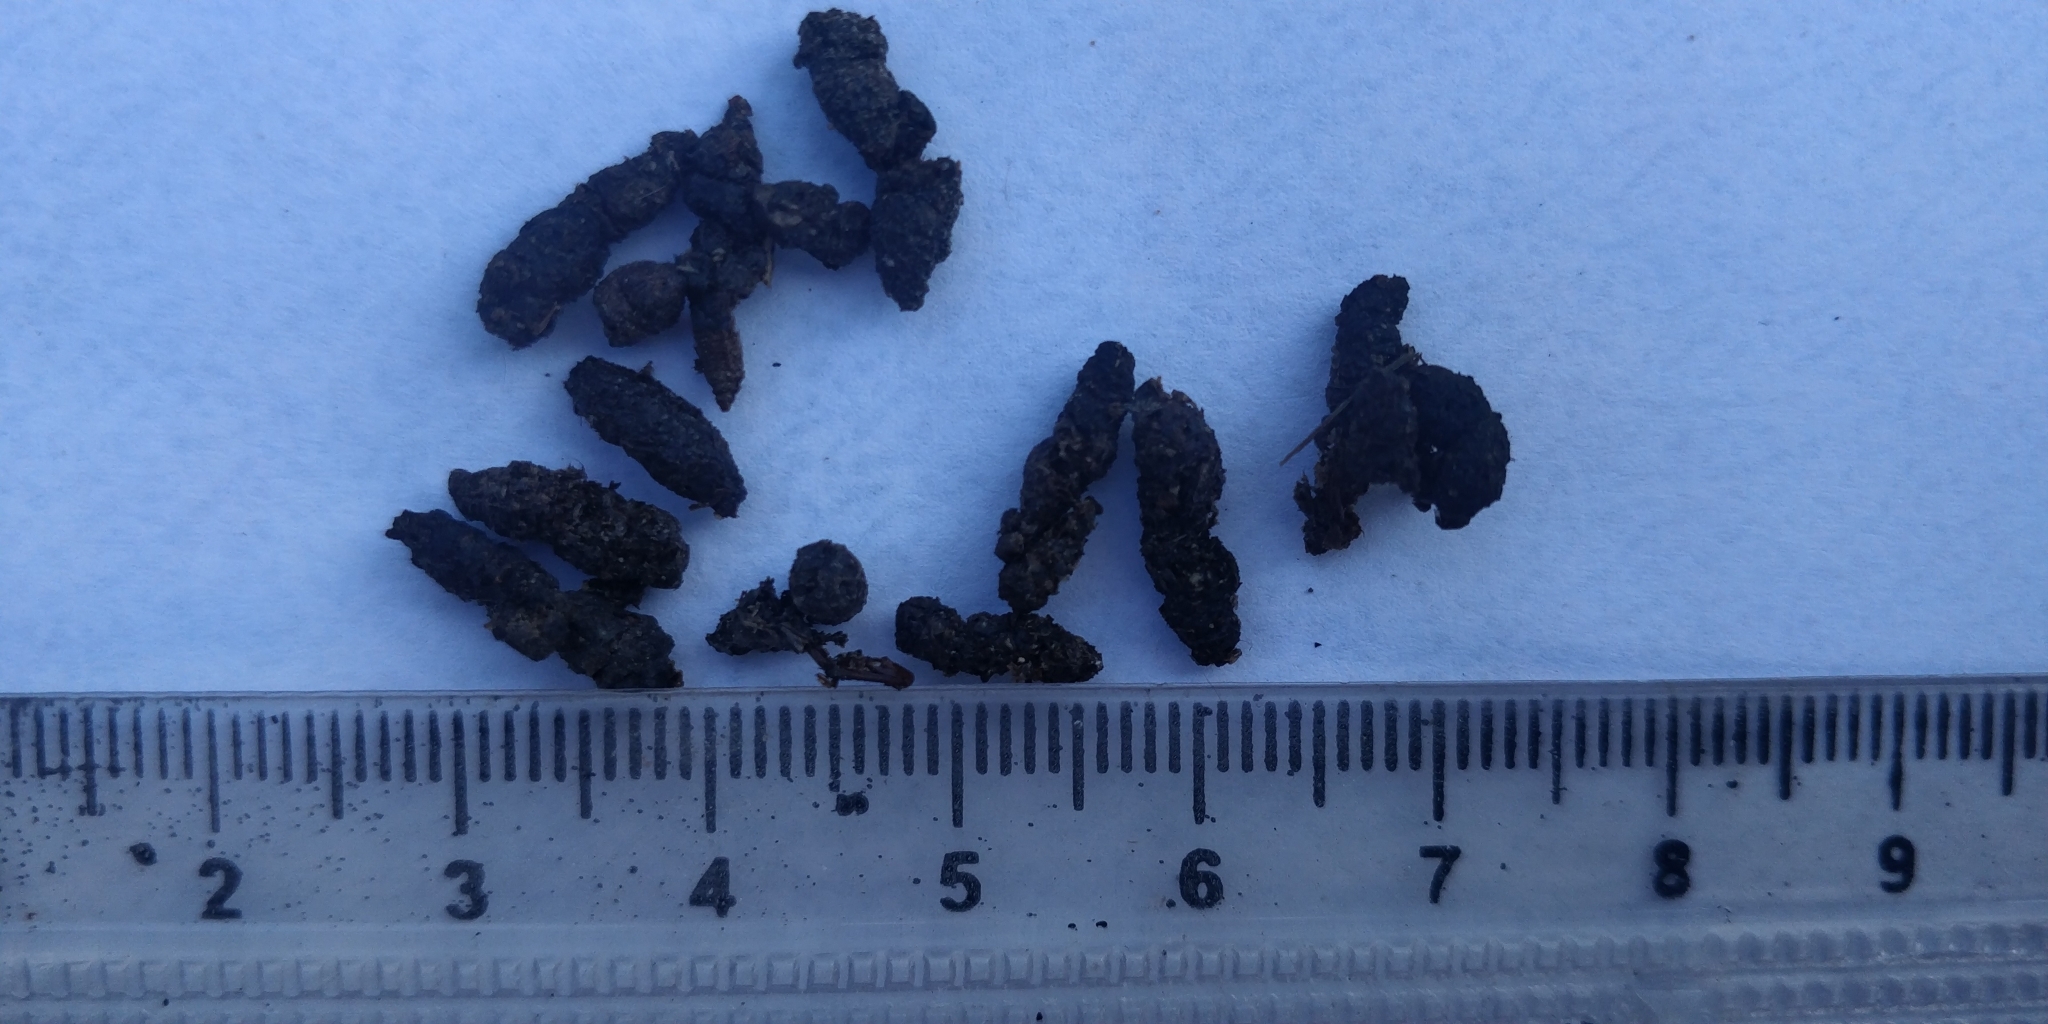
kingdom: Animalia
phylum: Chordata
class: Mammalia
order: Chiroptera
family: Vespertilionidae
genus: Eptesicus
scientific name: Eptesicus fuscus
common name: Big brown bat
